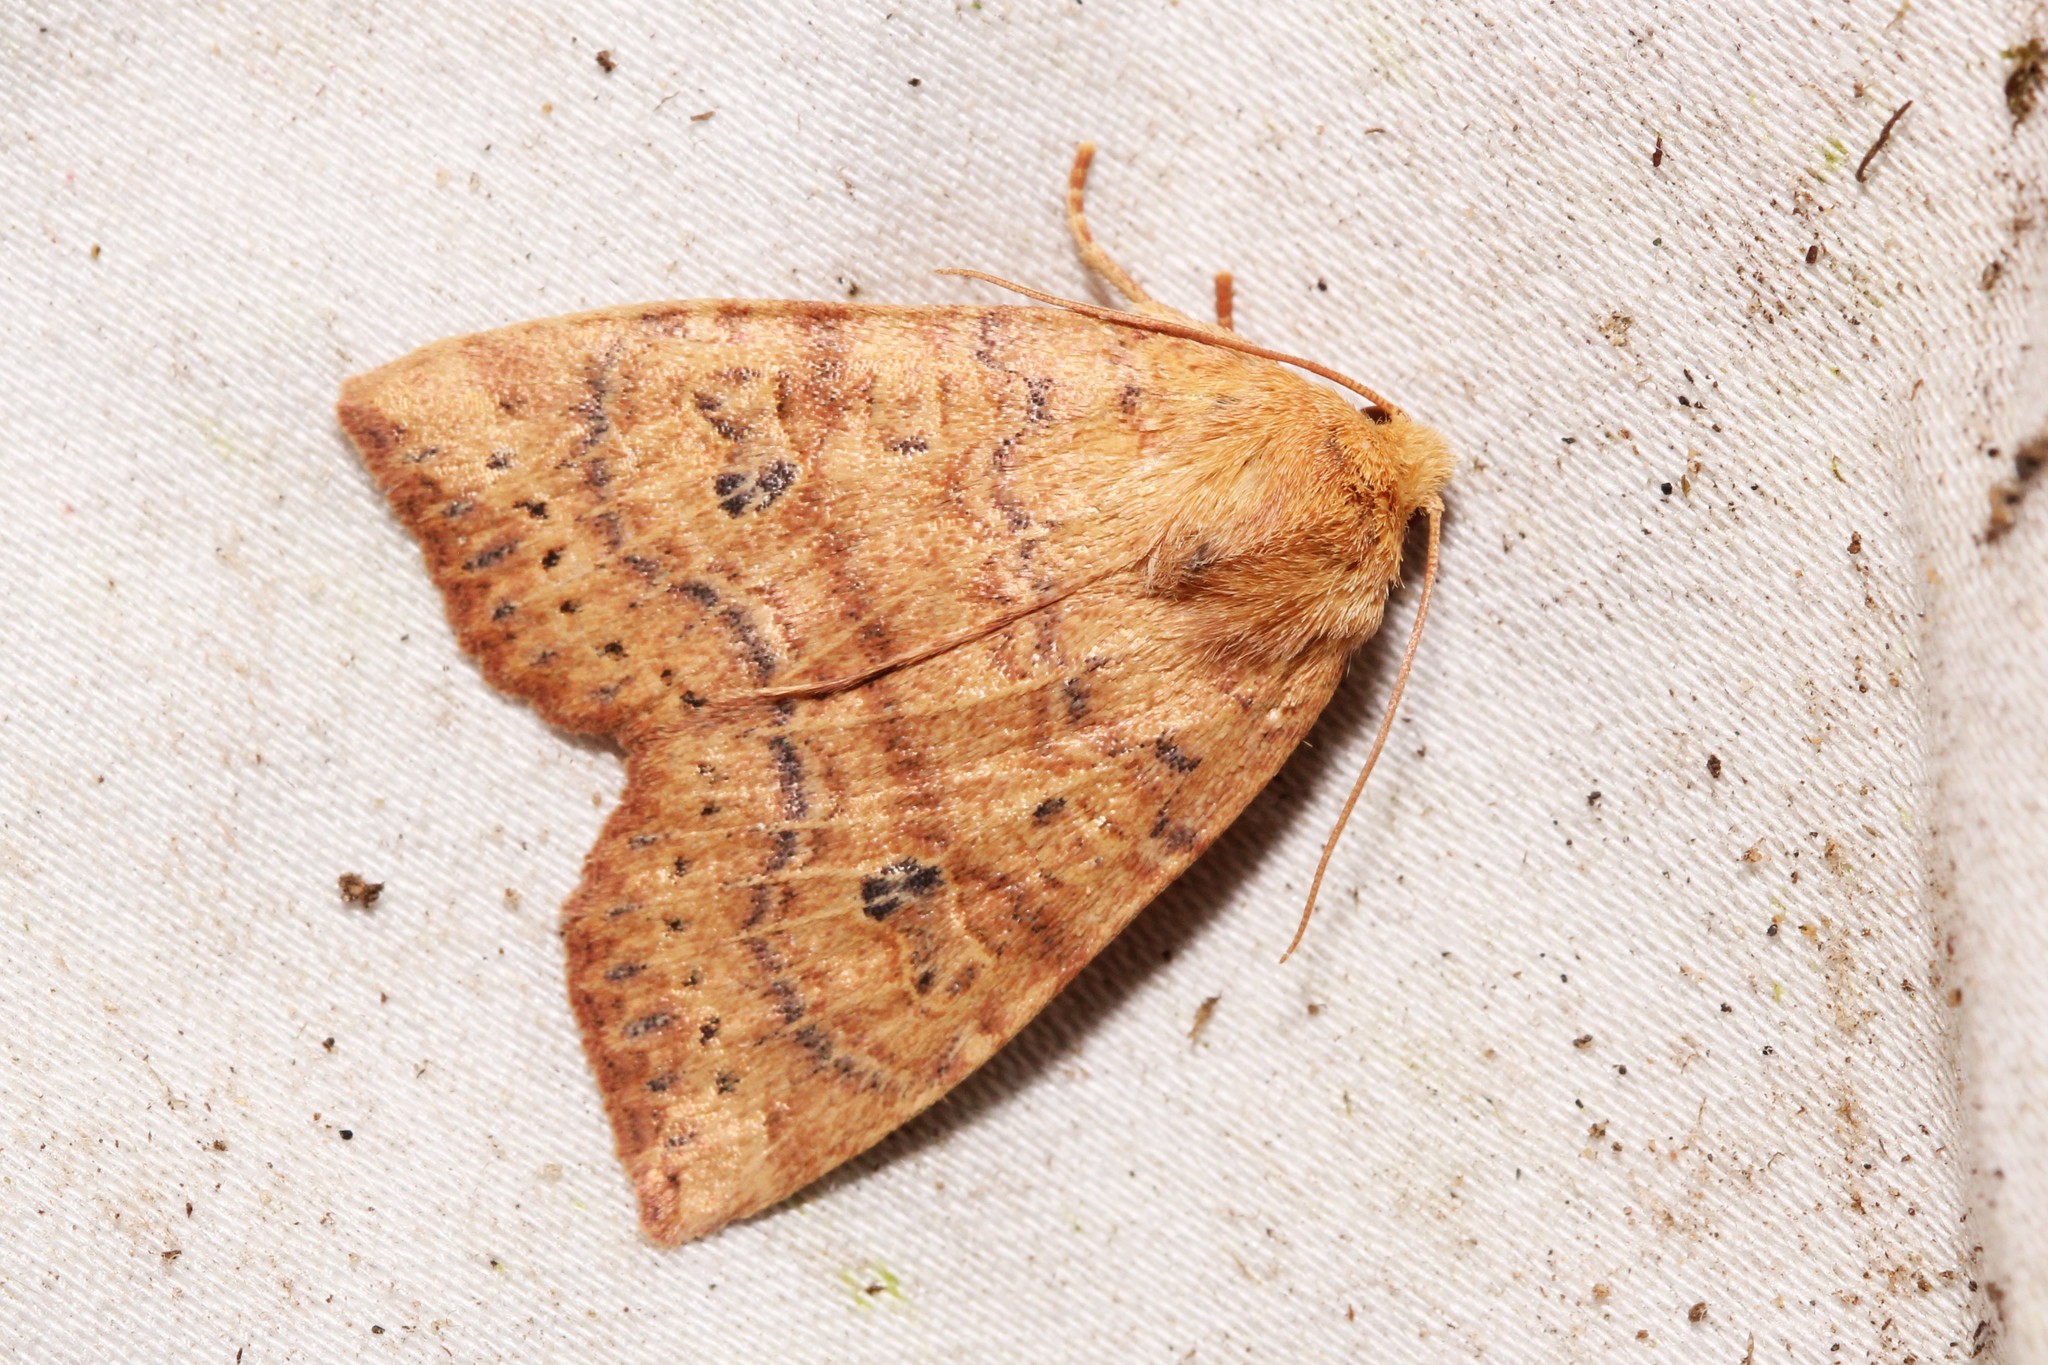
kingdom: Animalia
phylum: Arthropoda
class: Insecta
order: Lepidoptera
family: Noctuidae
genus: Anathix
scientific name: Anathix ralla
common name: Dotted sallow
